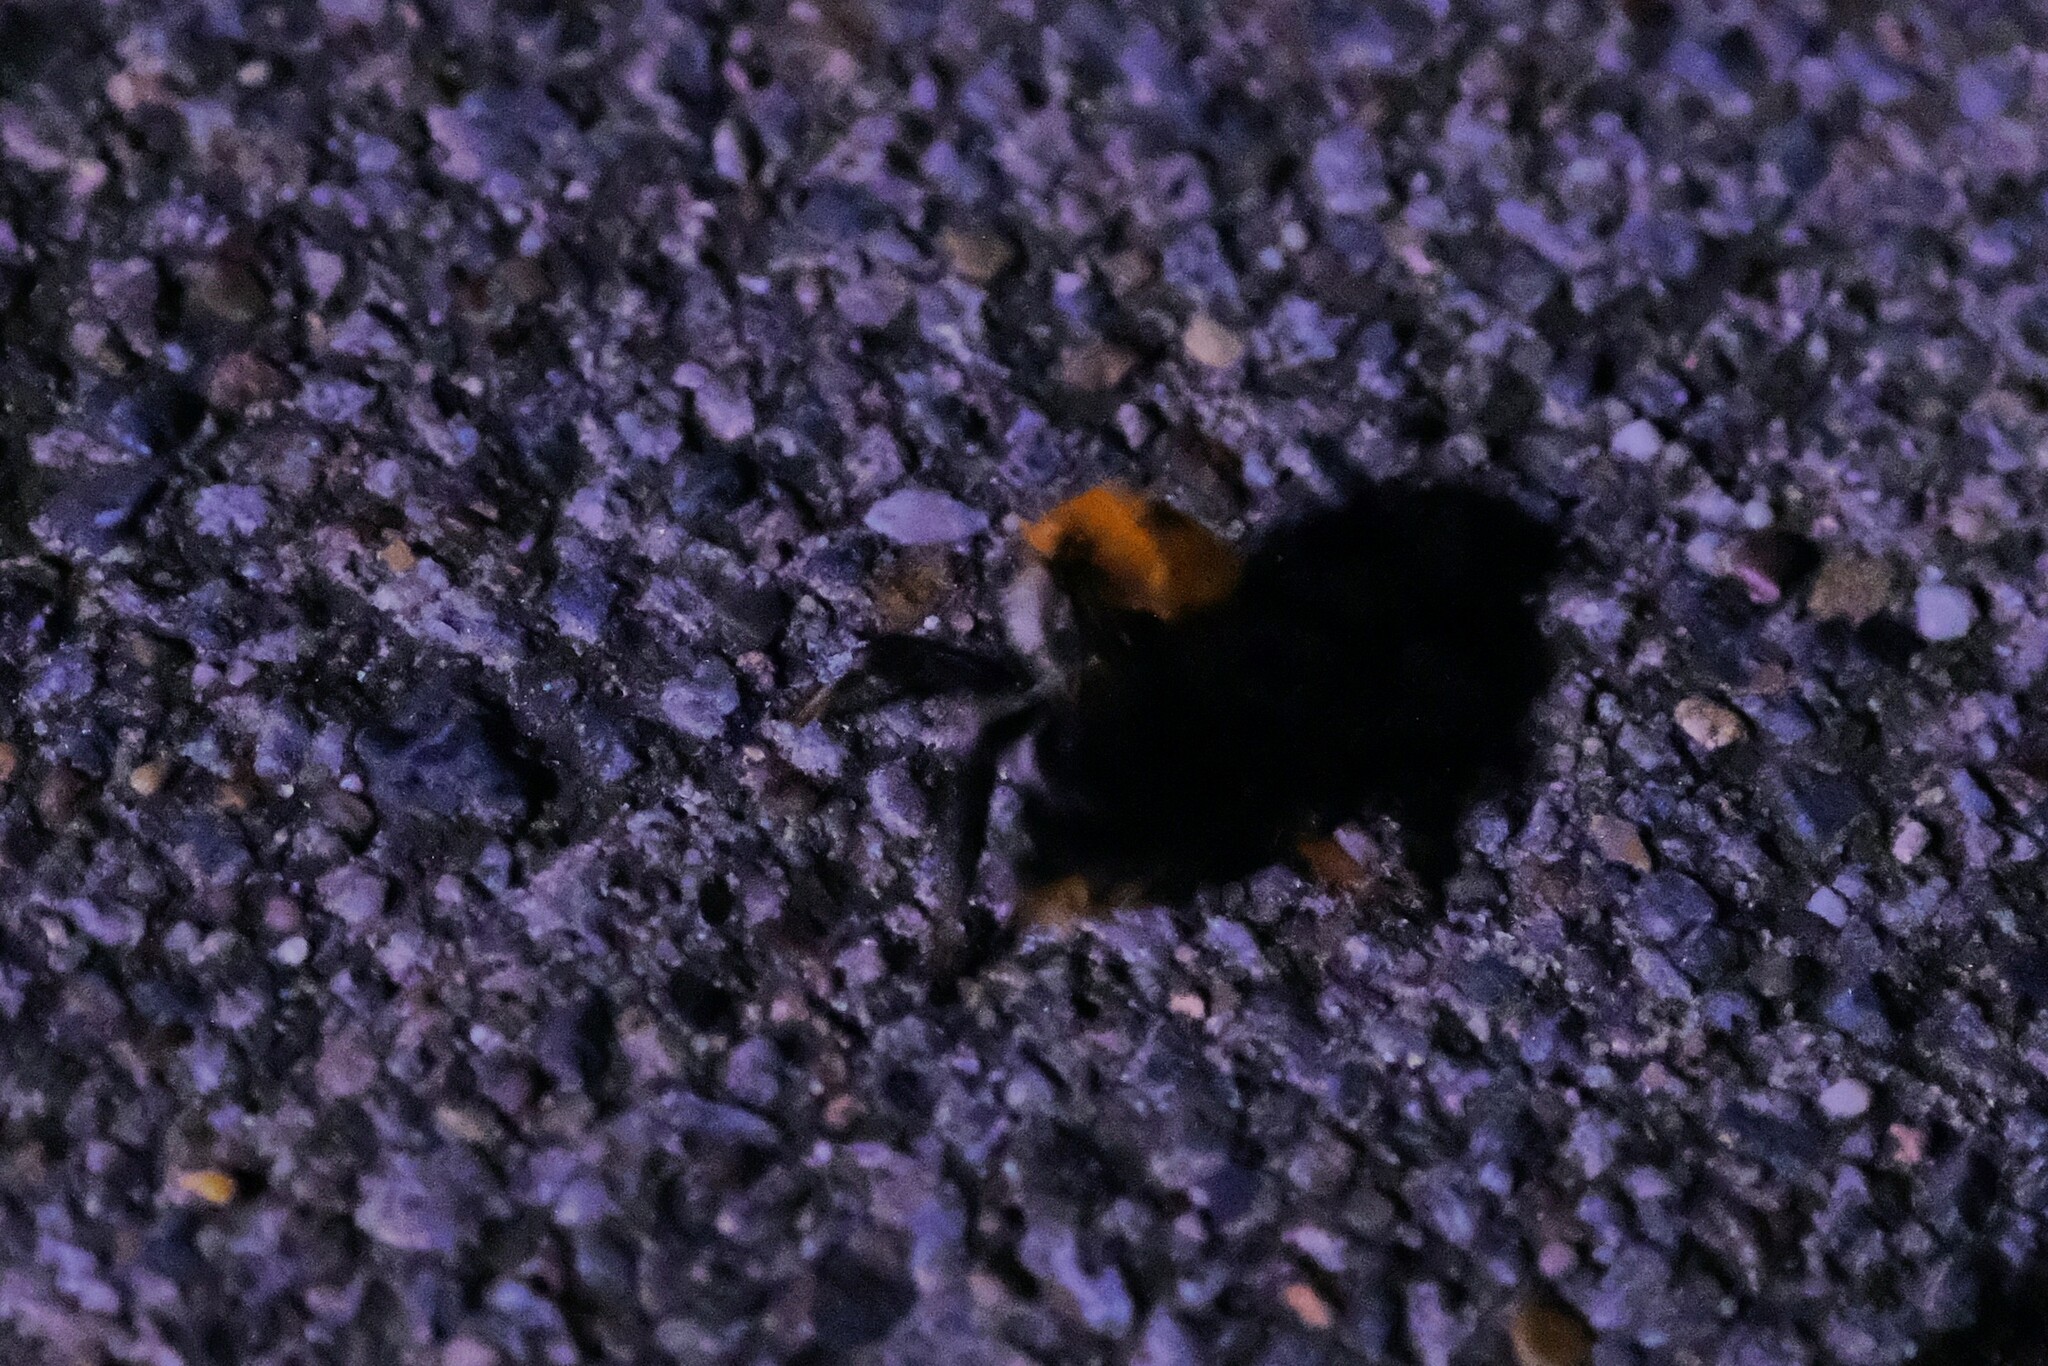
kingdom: Animalia
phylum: Arthropoda
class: Insecta
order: Hymenoptera
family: Apidae
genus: Bombus
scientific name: Bombus pascuorum
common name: Common carder bee
